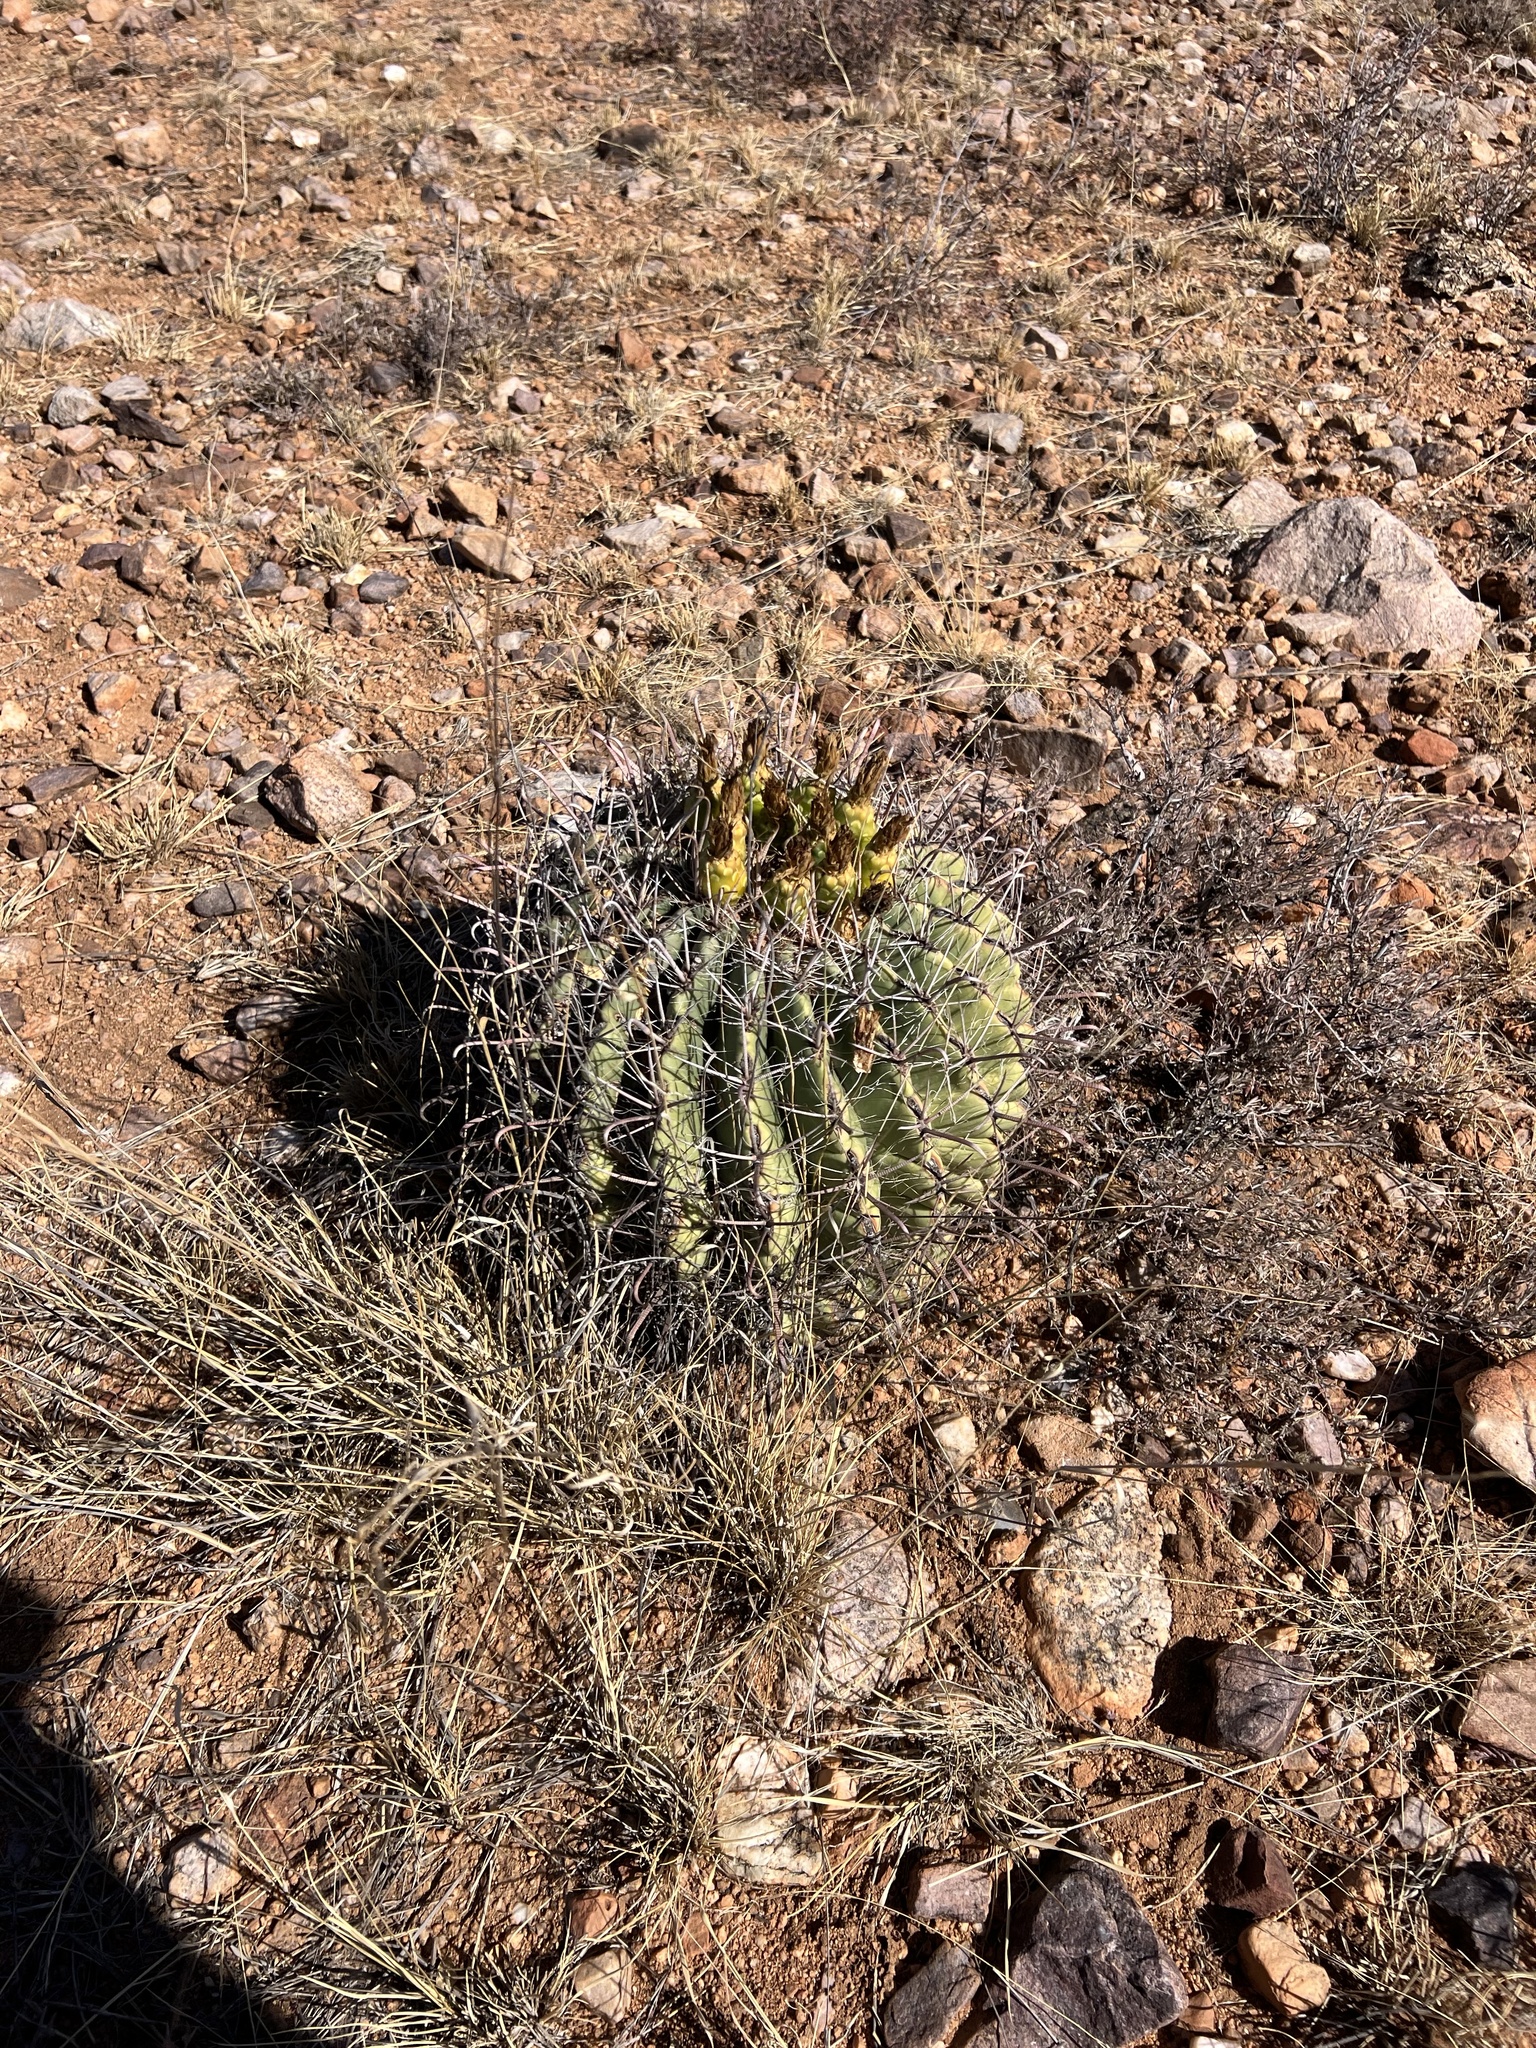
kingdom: Plantae
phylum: Tracheophyta
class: Magnoliopsida
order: Caryophyllales
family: Cactaceae
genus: Ferocactus
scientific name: Ferocactus wislizeni
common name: Candy barrel cactus
